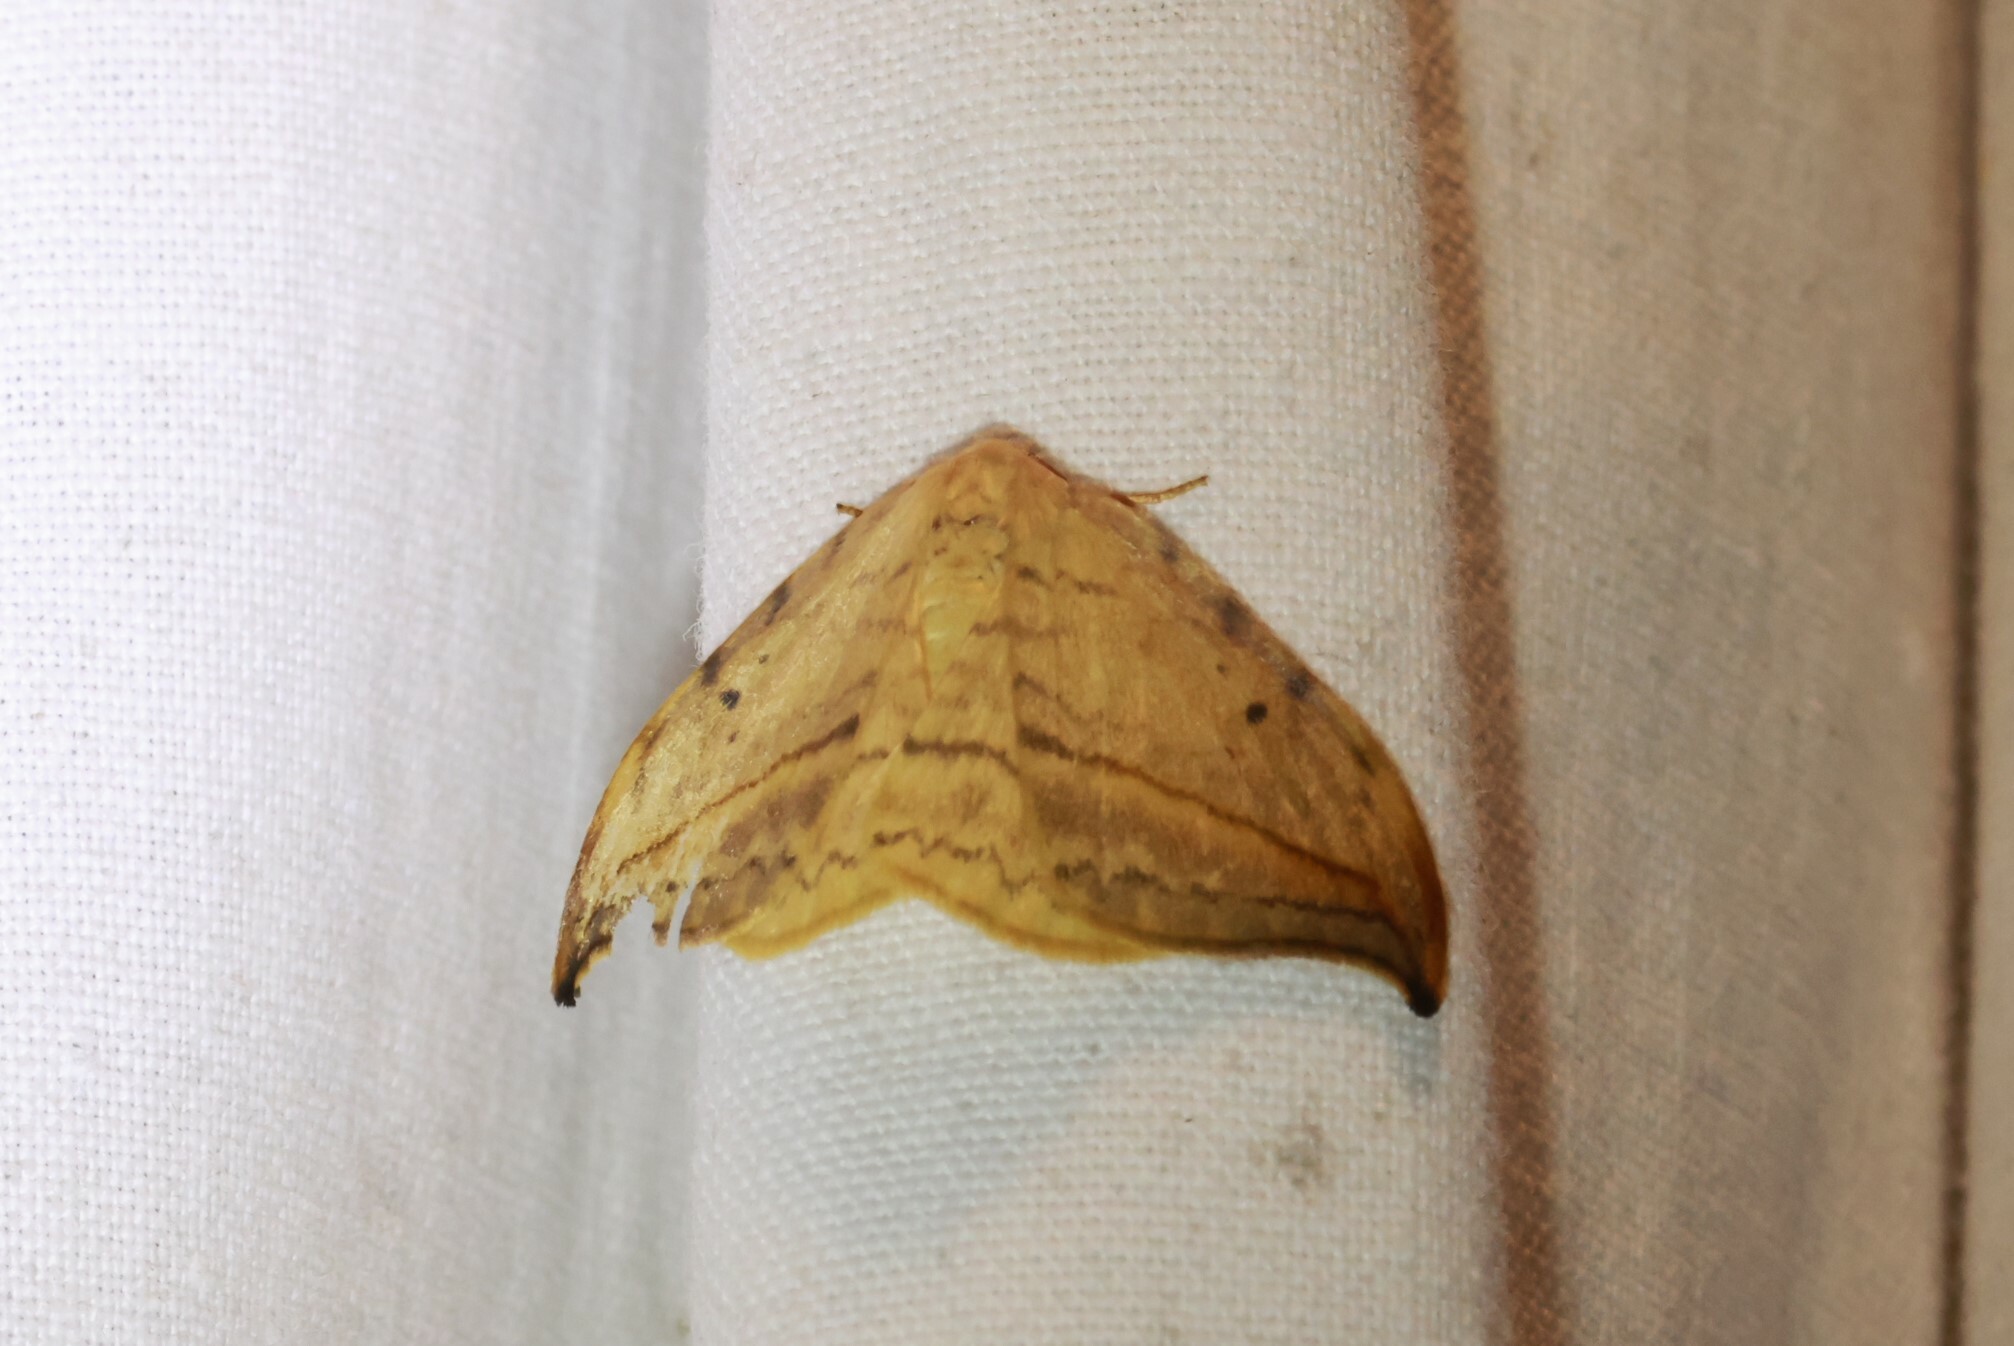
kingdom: Animalia
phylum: Arthropoda
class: Insecta
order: Lepidoptera
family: Drepanidae
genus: Drepana
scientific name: Drepana arcuata
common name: Arched hooktip moth
